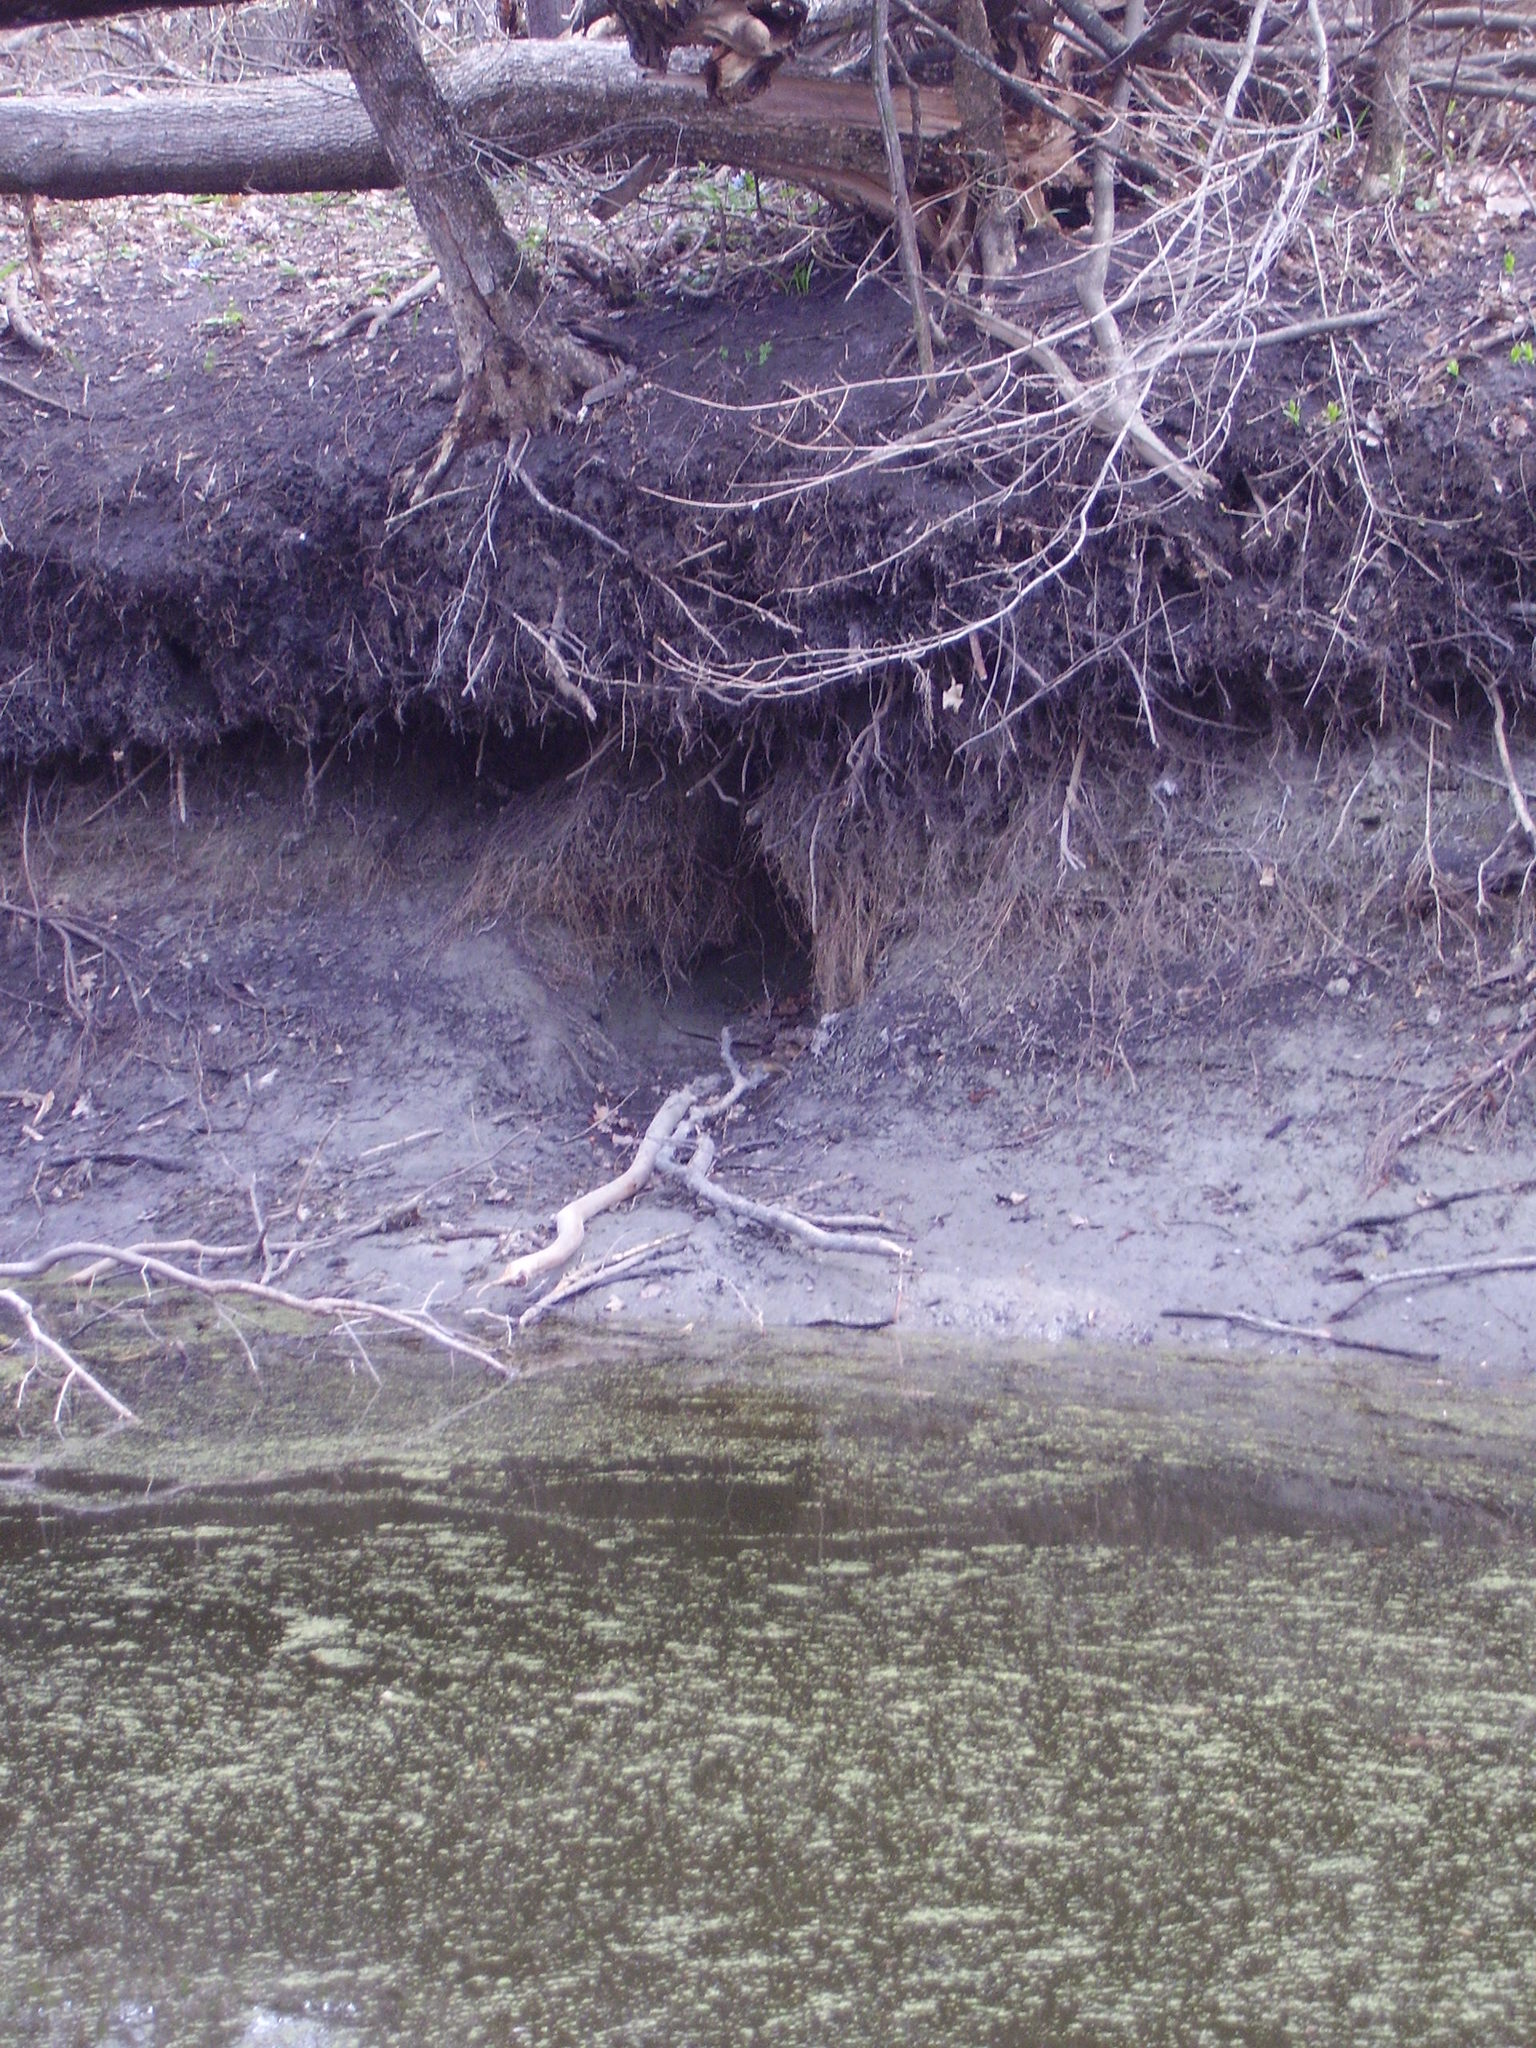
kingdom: Animalia
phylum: Chordata
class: Mammalia
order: Rodentia
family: Castoridae
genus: Castor
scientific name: Castor fiber
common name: Eurasian beaver
